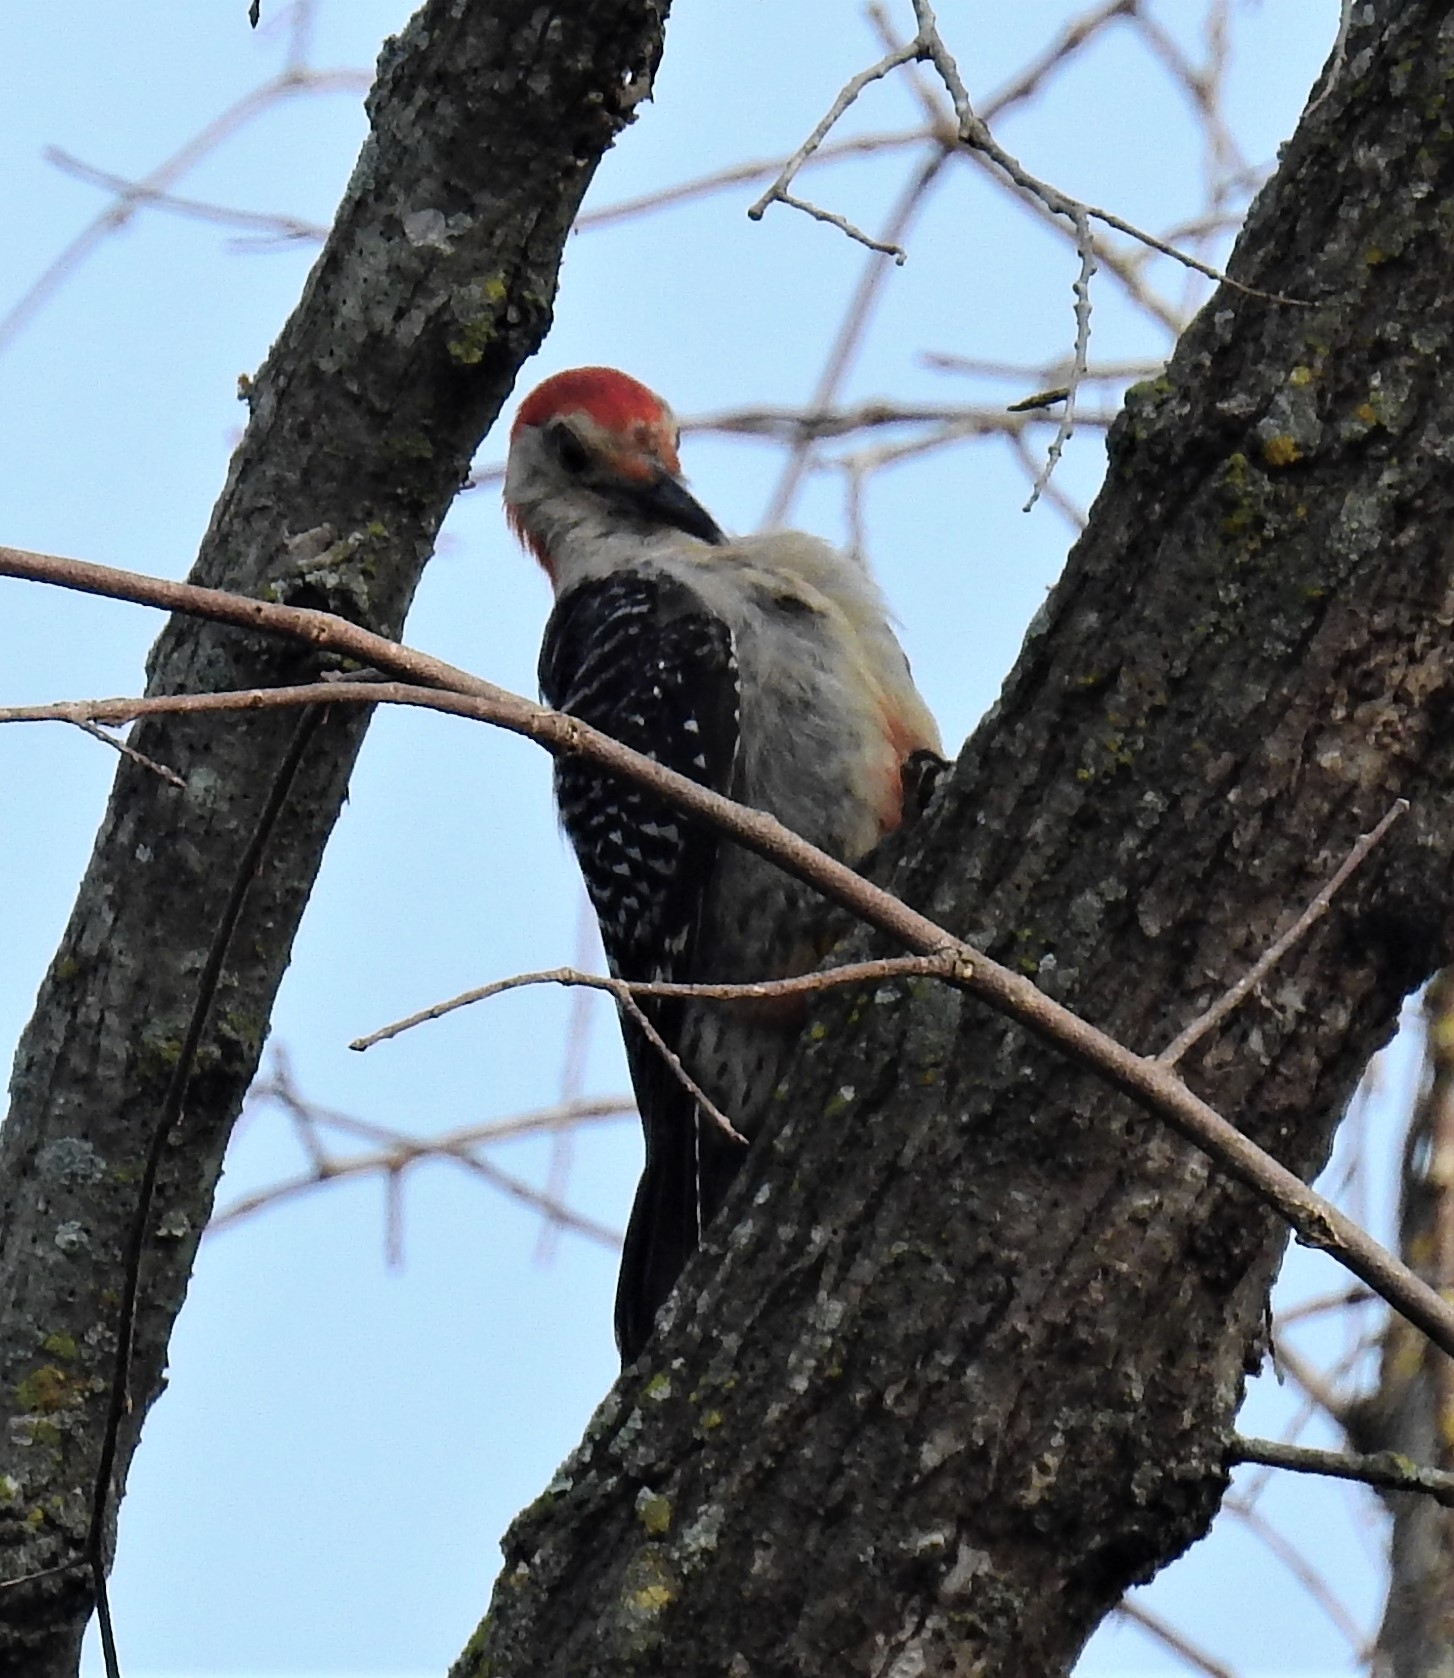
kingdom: Animalia
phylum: Chordata
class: Aves
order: Piciformes
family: Picidae
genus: Melanerpes
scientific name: Melanerpes carolinus
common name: Red-bellied woodpecker
